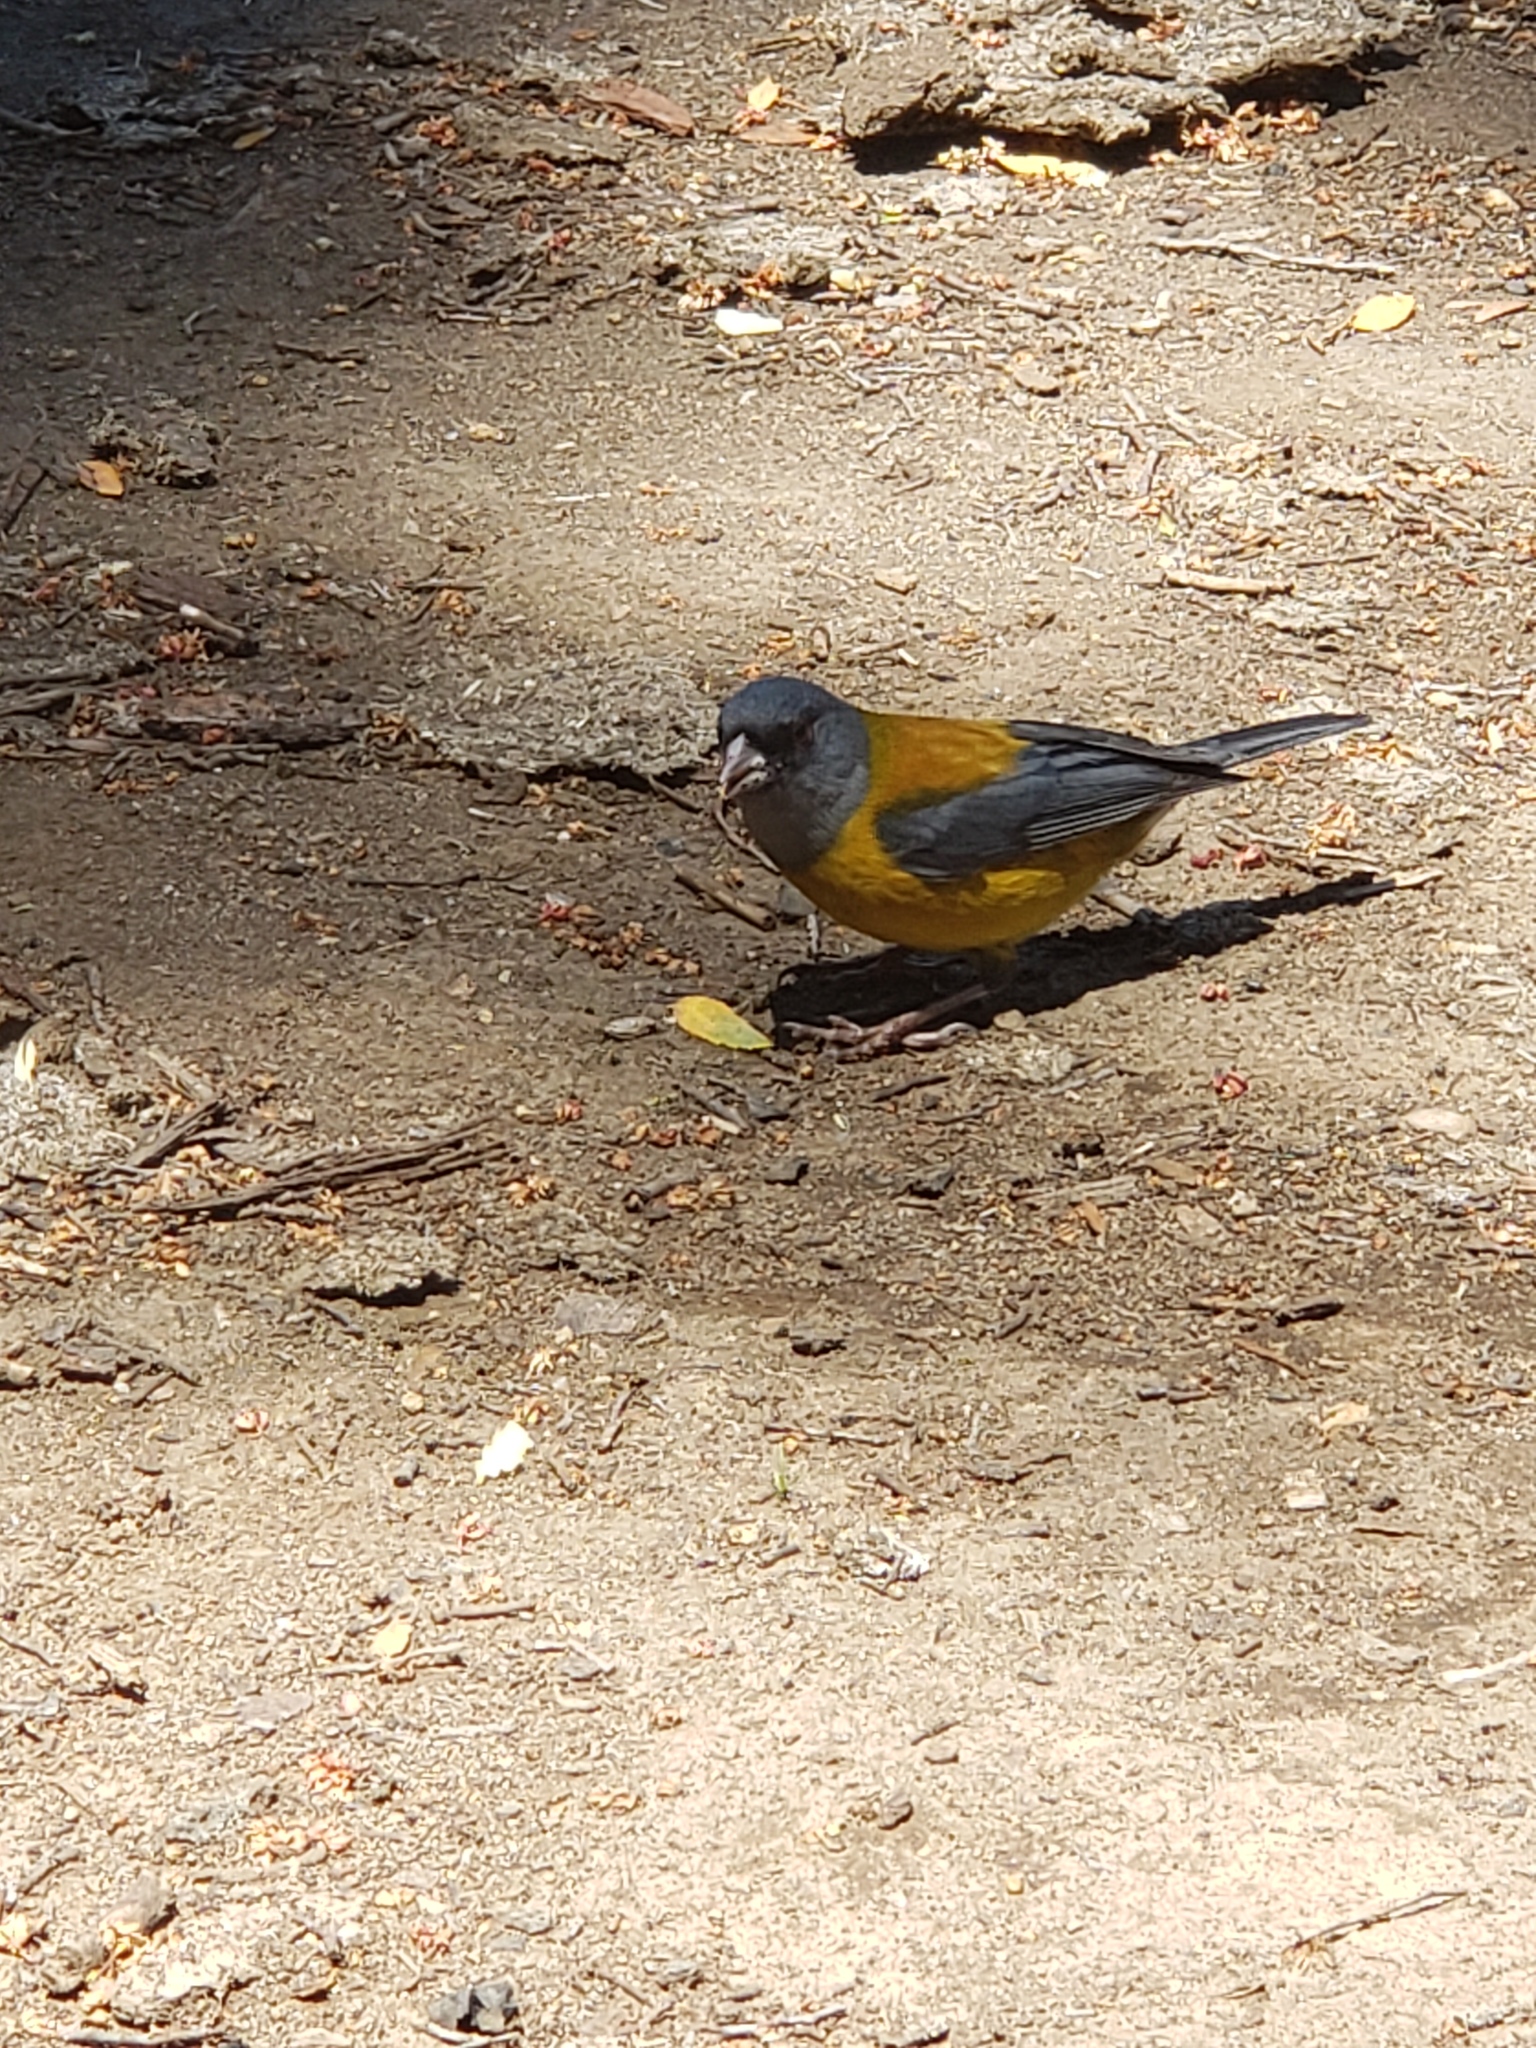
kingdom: Animalia
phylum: Chordata
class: Aves
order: Passeriformes
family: Thraupidae
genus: Phrygilus
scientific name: Phrygilus patagonicus
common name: Patagonian sierra finch
